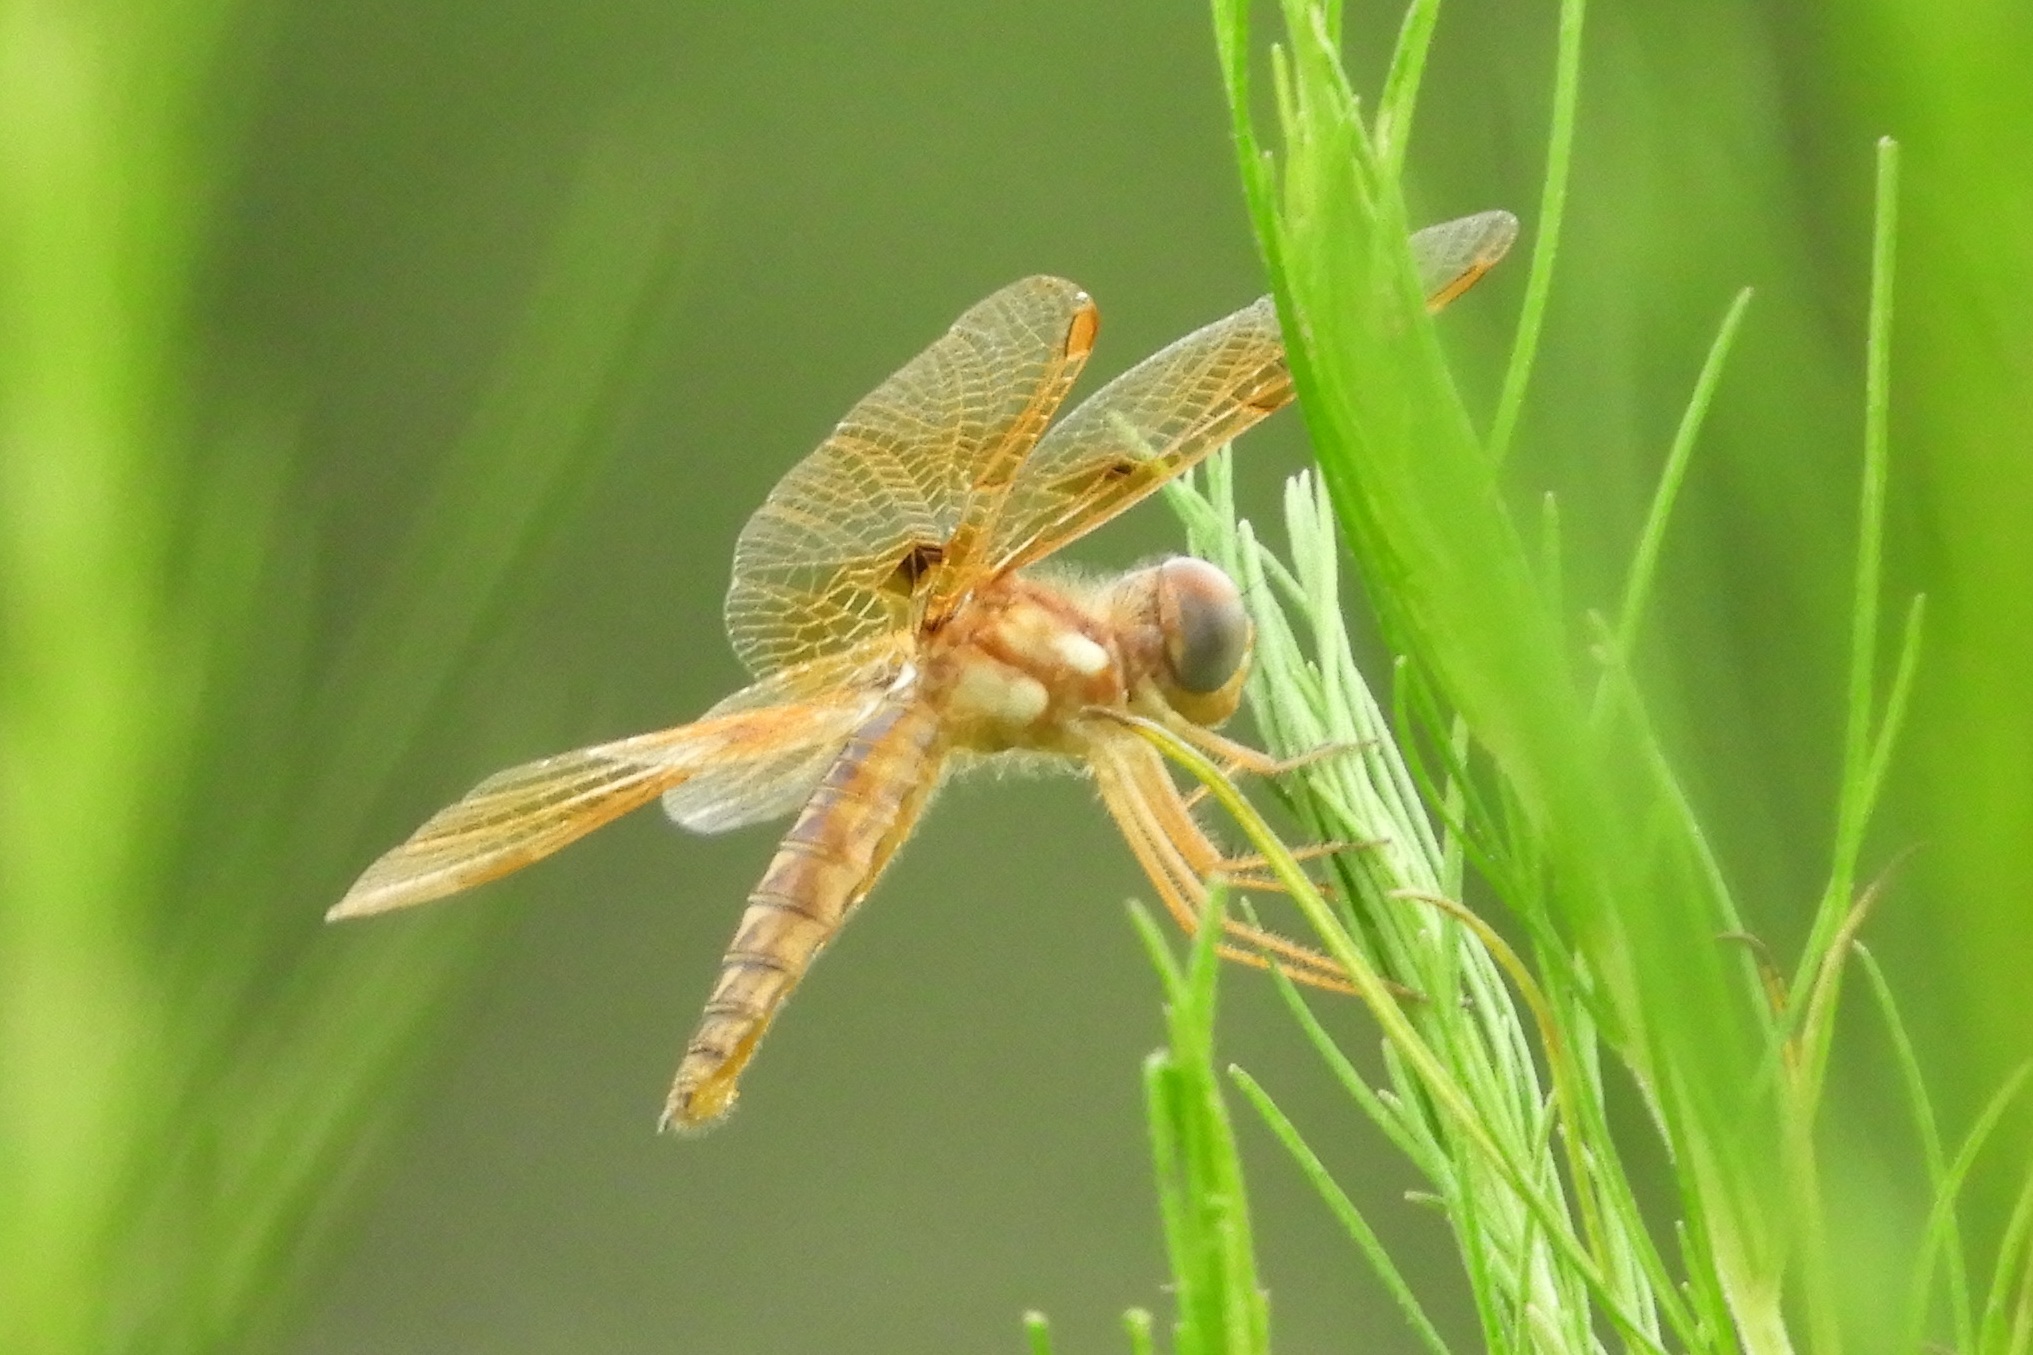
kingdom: Animalia
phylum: Arthropoda
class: Insecta
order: Odonata
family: Libellulidae
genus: Perithemis
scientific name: Perithemis tenera
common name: Eastern amberwing
